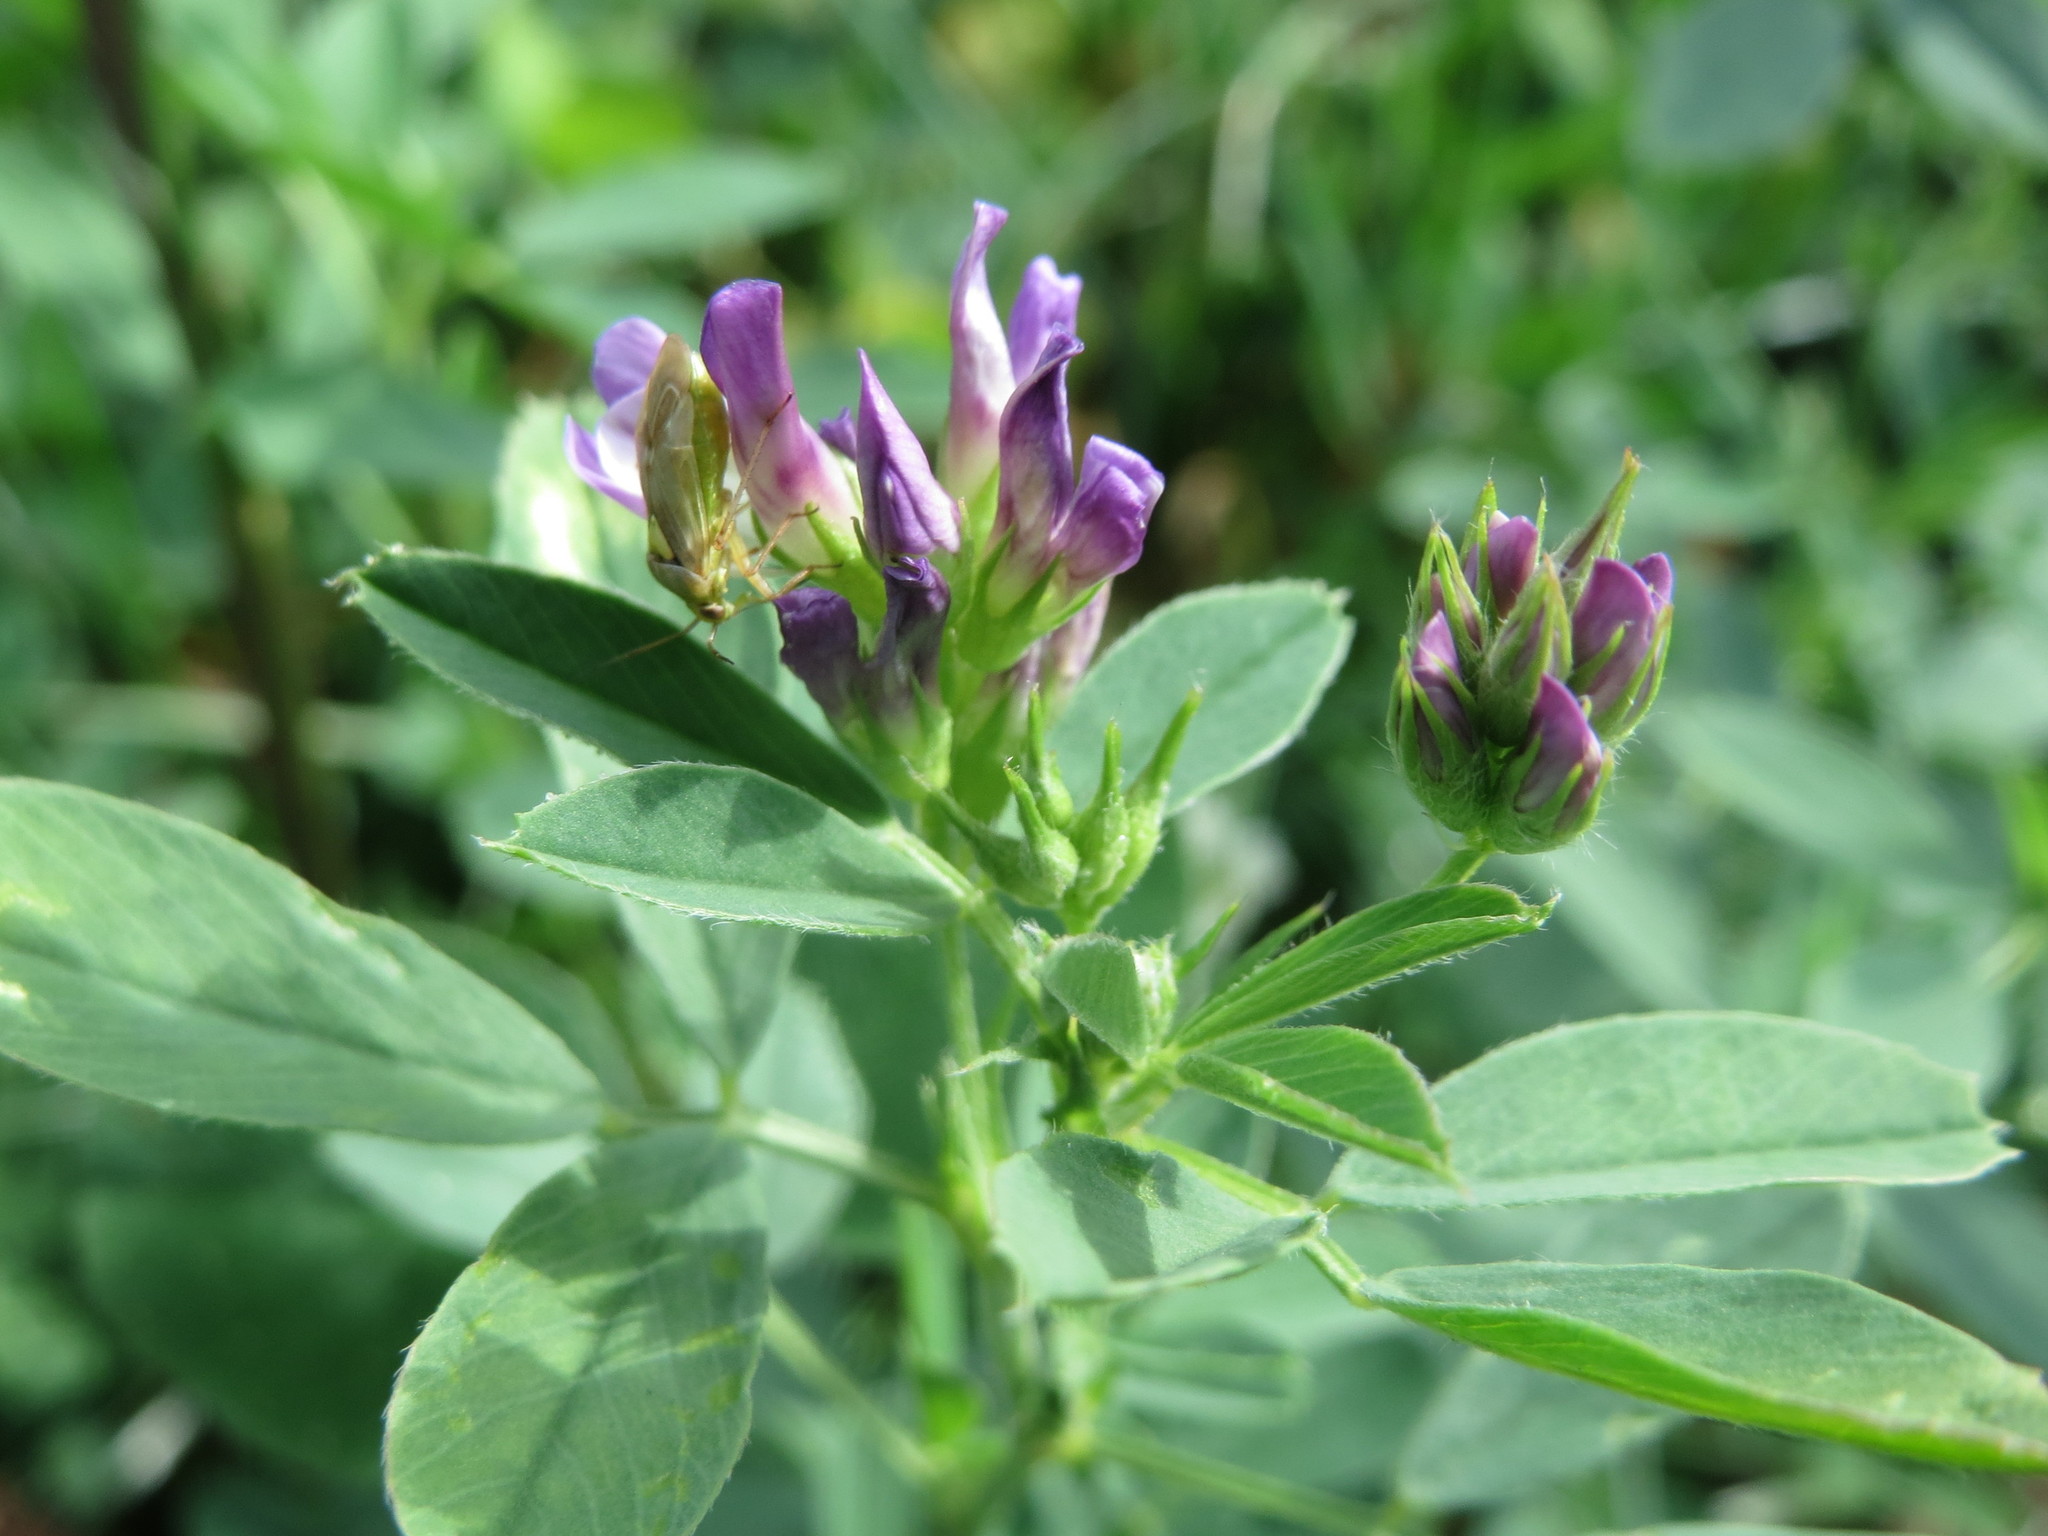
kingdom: Plantae
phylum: Tracheophyta
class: Magnoliopsida
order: Fabales
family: Fabaceae
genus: Medicago
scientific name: Medicago sativa
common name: Alfalfa
